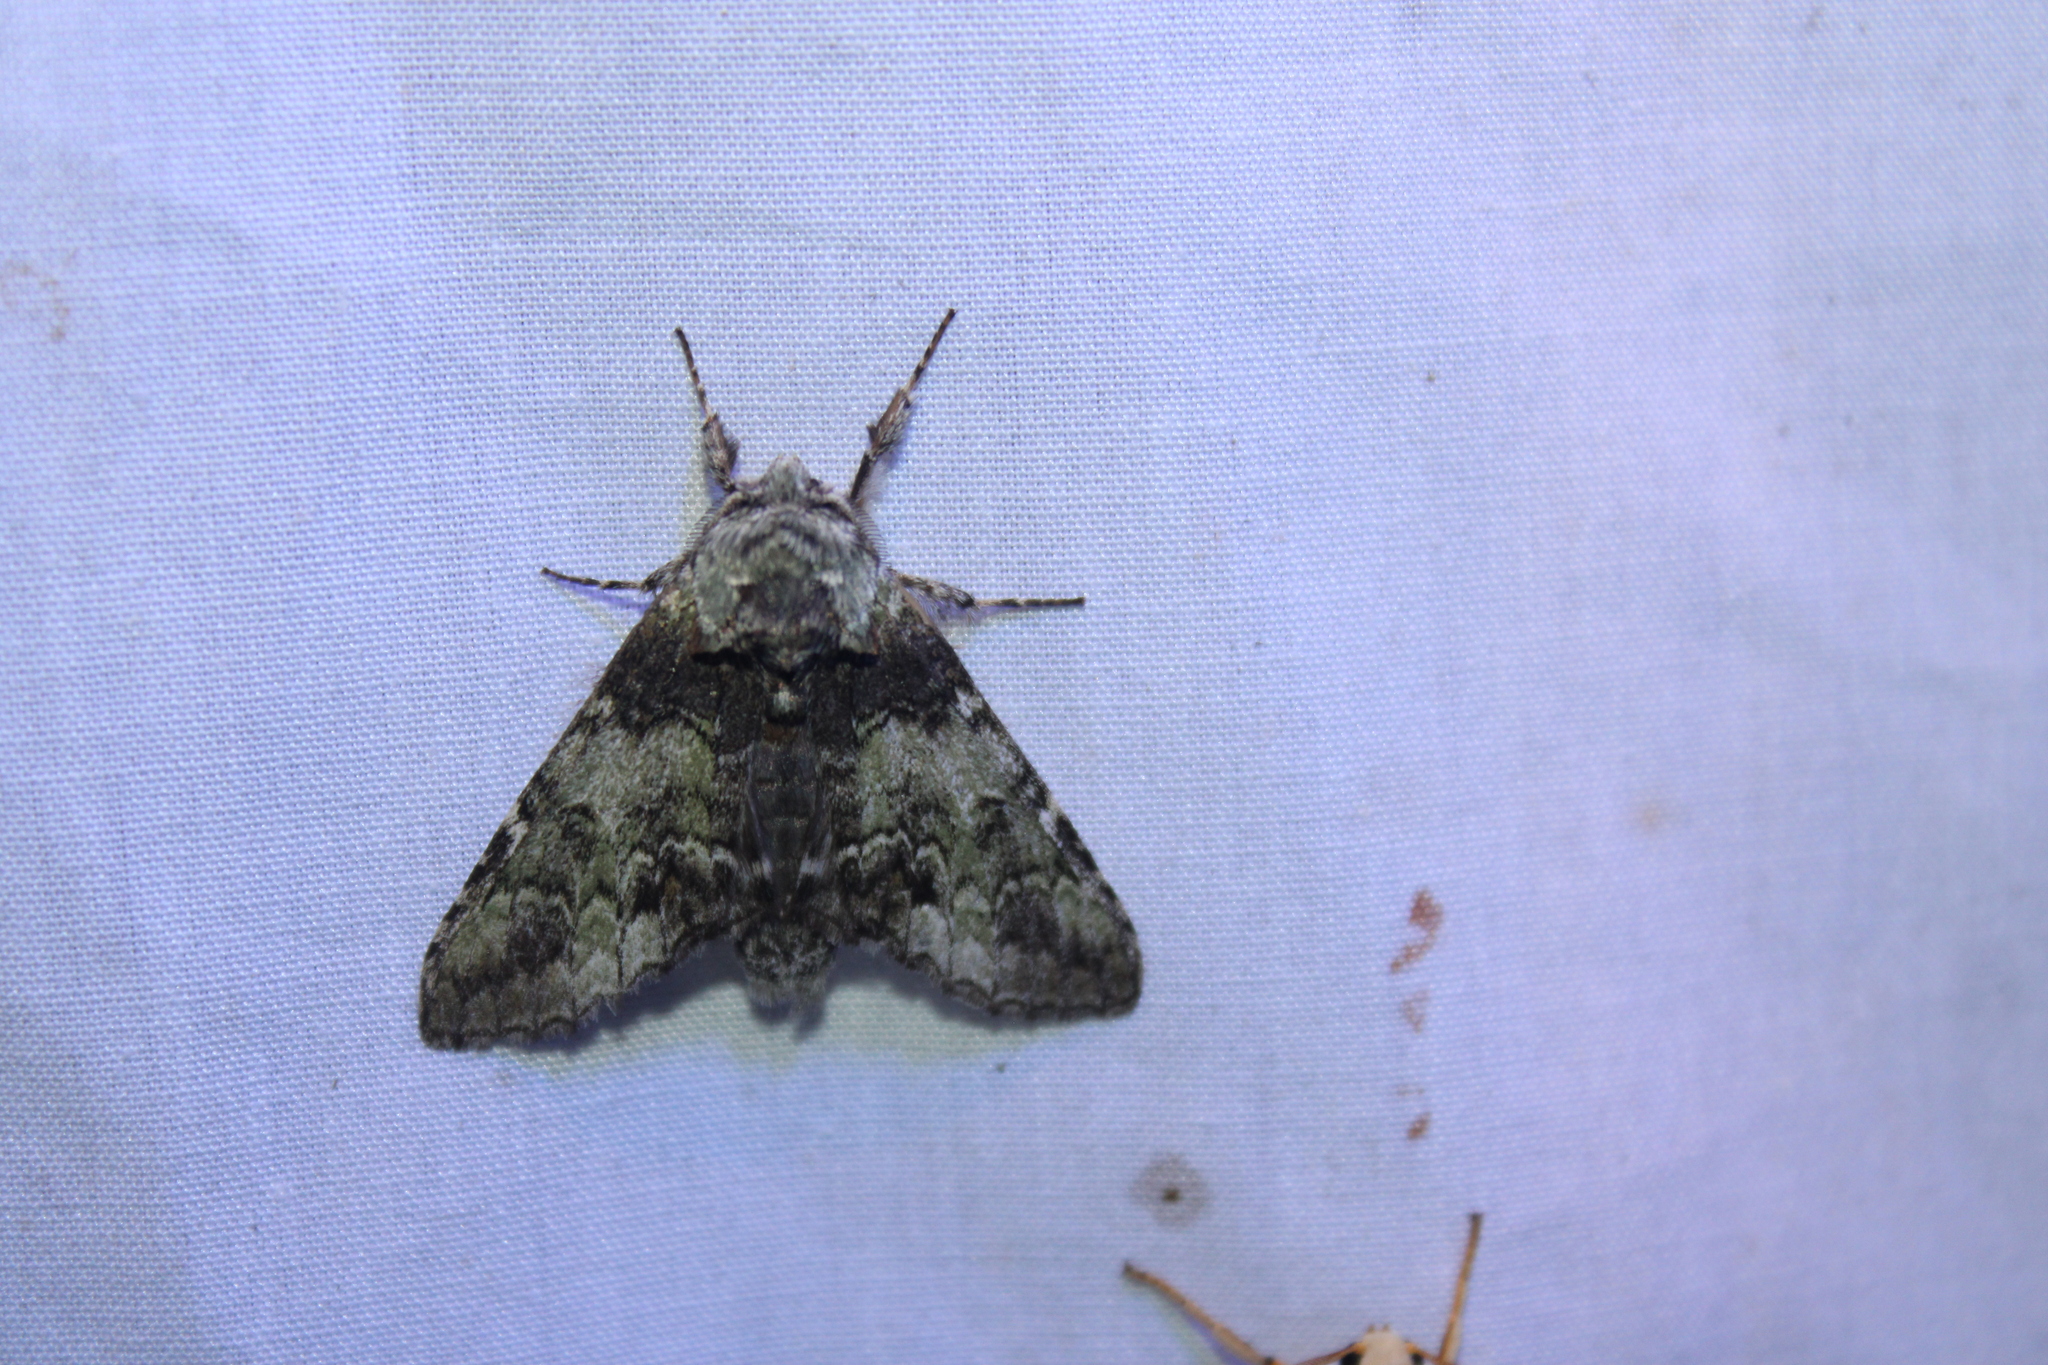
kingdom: Animalia
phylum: Arthropoda
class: Insecta
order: Lepidoptera
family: Notodontidae
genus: Macrurocampa
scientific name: Macrurocampa marthesia
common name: Mottled prominent
